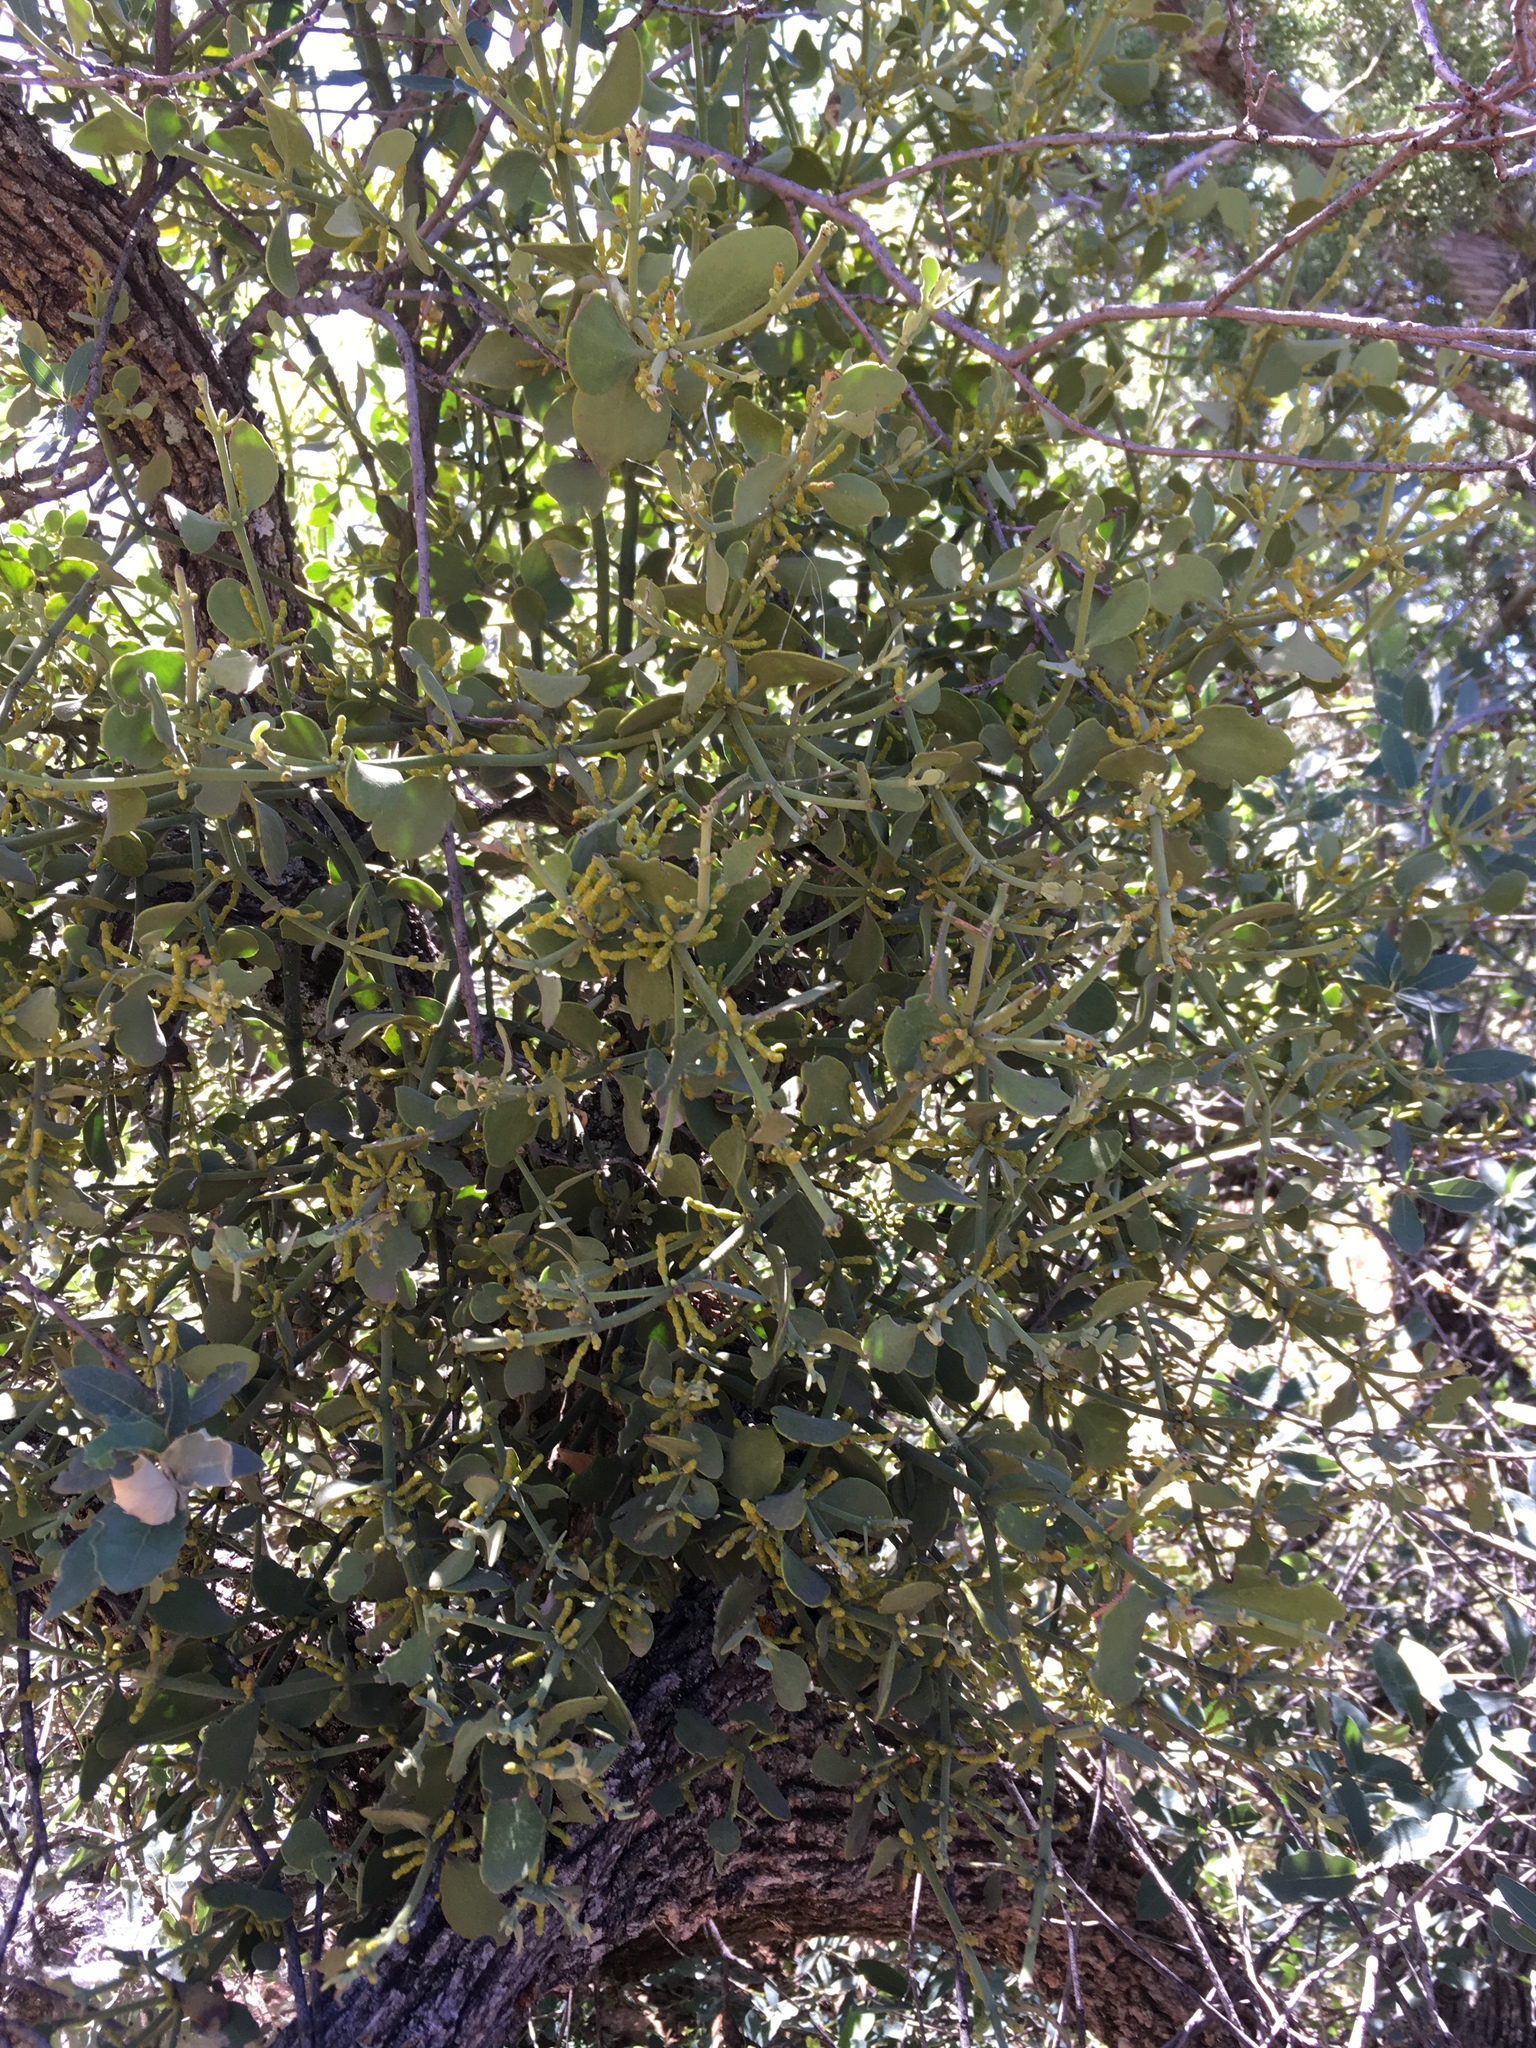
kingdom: Plantae
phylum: Tracheophyta
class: Magnoliopsida
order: Santalales
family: Viscaceae
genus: Phoradendron
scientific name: Phoradendron coryae
